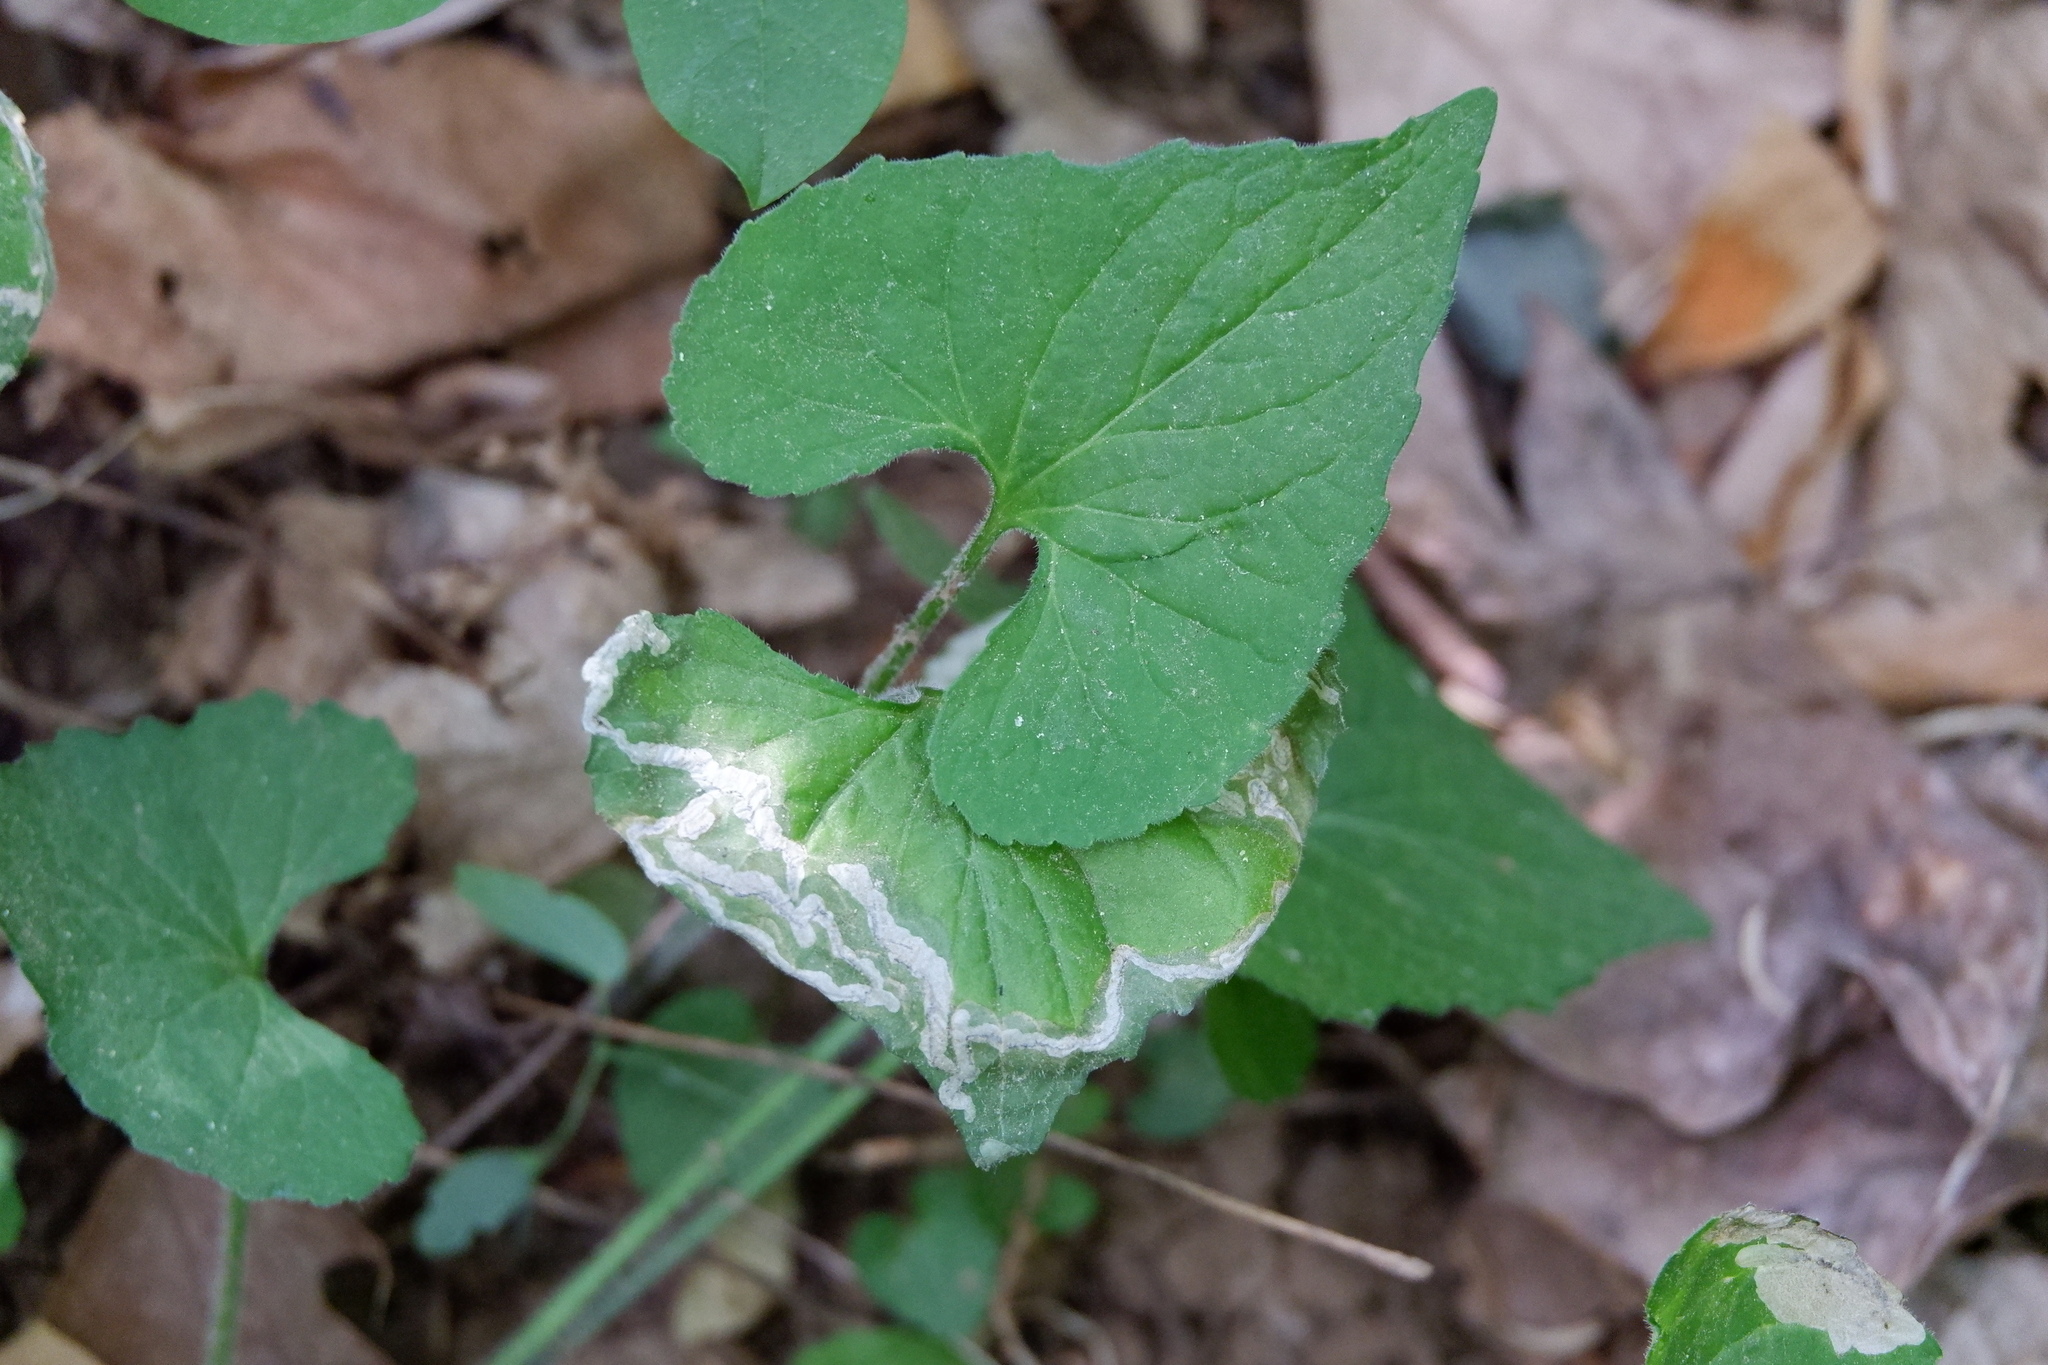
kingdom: Animalia
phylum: Arthropoda
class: Insecta
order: Hymenoptera
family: Tenthredinidae
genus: Nefusa
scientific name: Nefusa ambigua
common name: Violet leafmining sawfly
